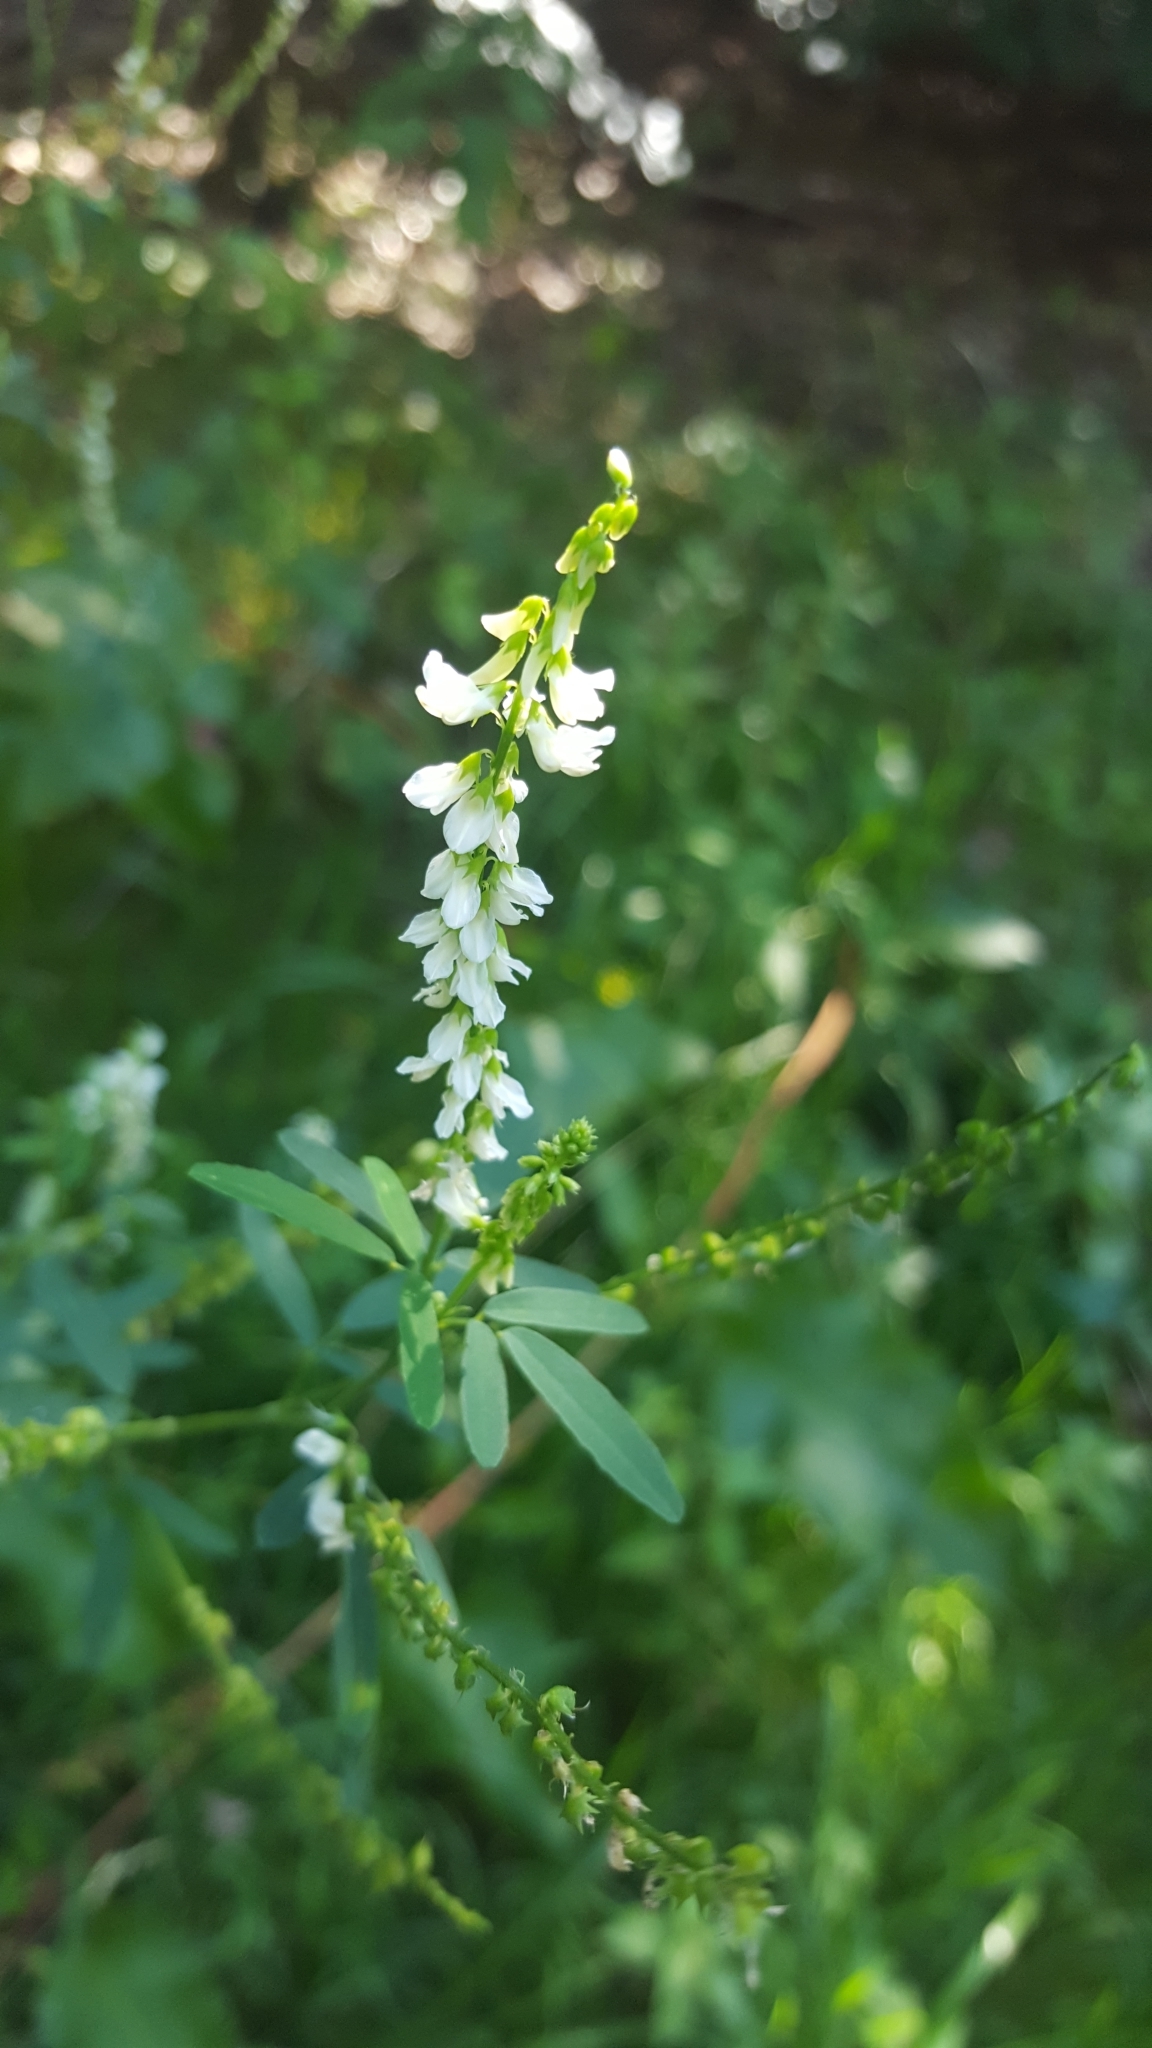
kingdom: Plantae
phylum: Tracheophyta
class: Magnoliopsida
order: Fabales
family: Fabaceae
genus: Melilotus
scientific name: Melilotus albus
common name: White melilot
